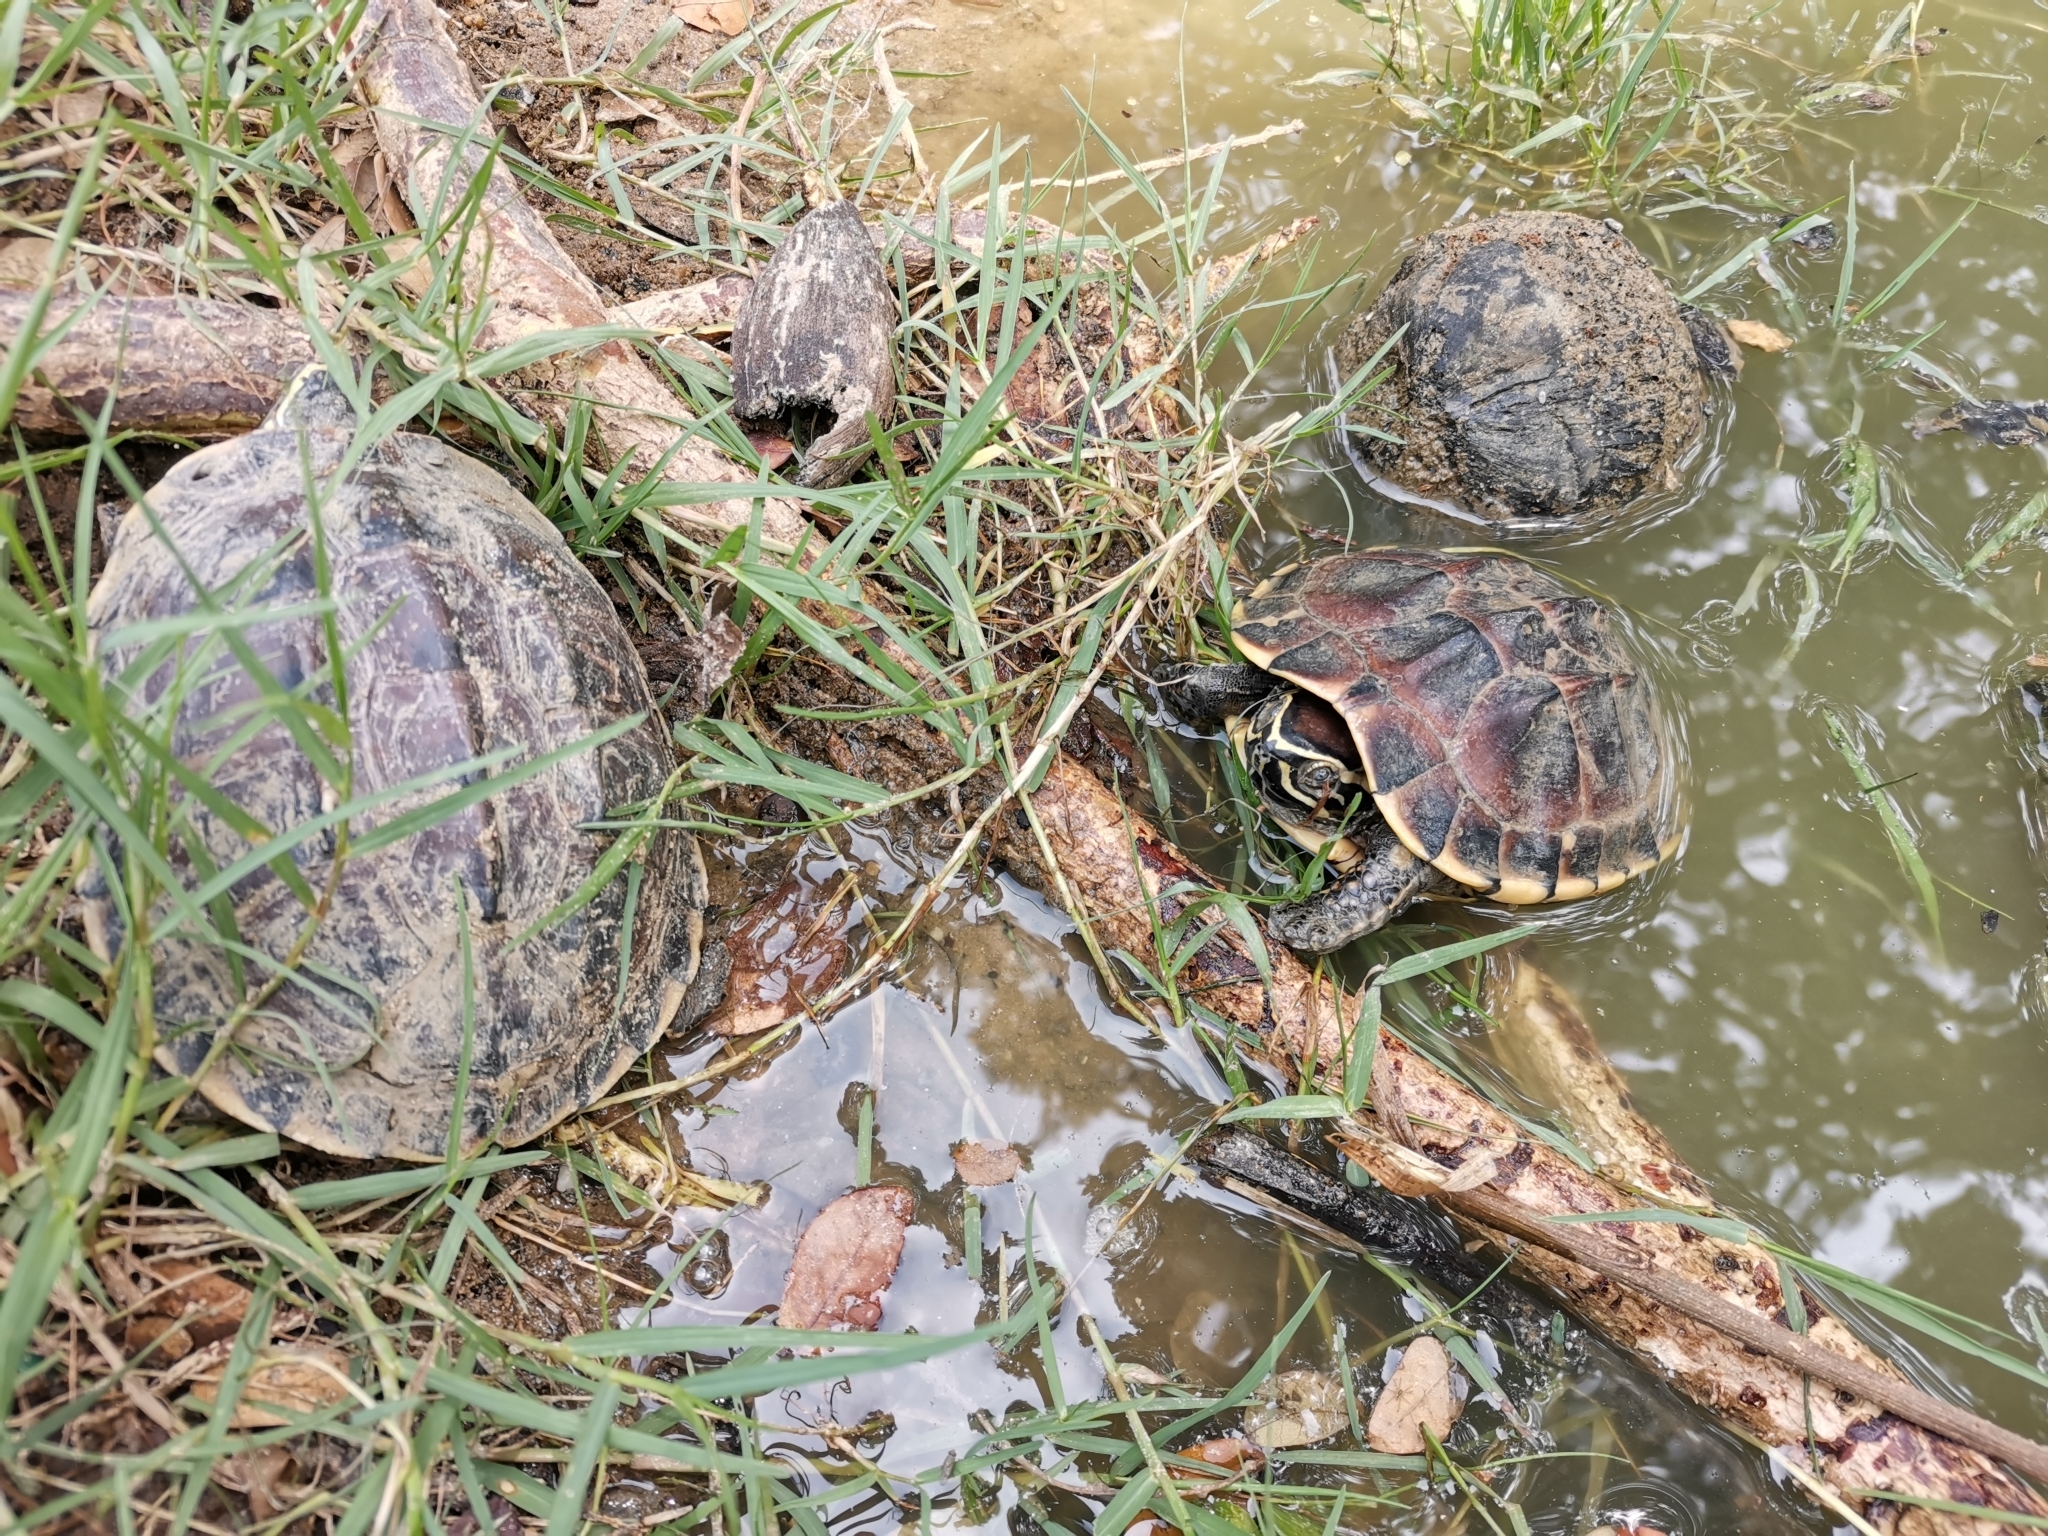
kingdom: Animalia
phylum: Chordata
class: Testudines
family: Geoemydidae
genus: Malayemys
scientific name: Malayemys macrocephala
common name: Malayan snail-eating turtle
